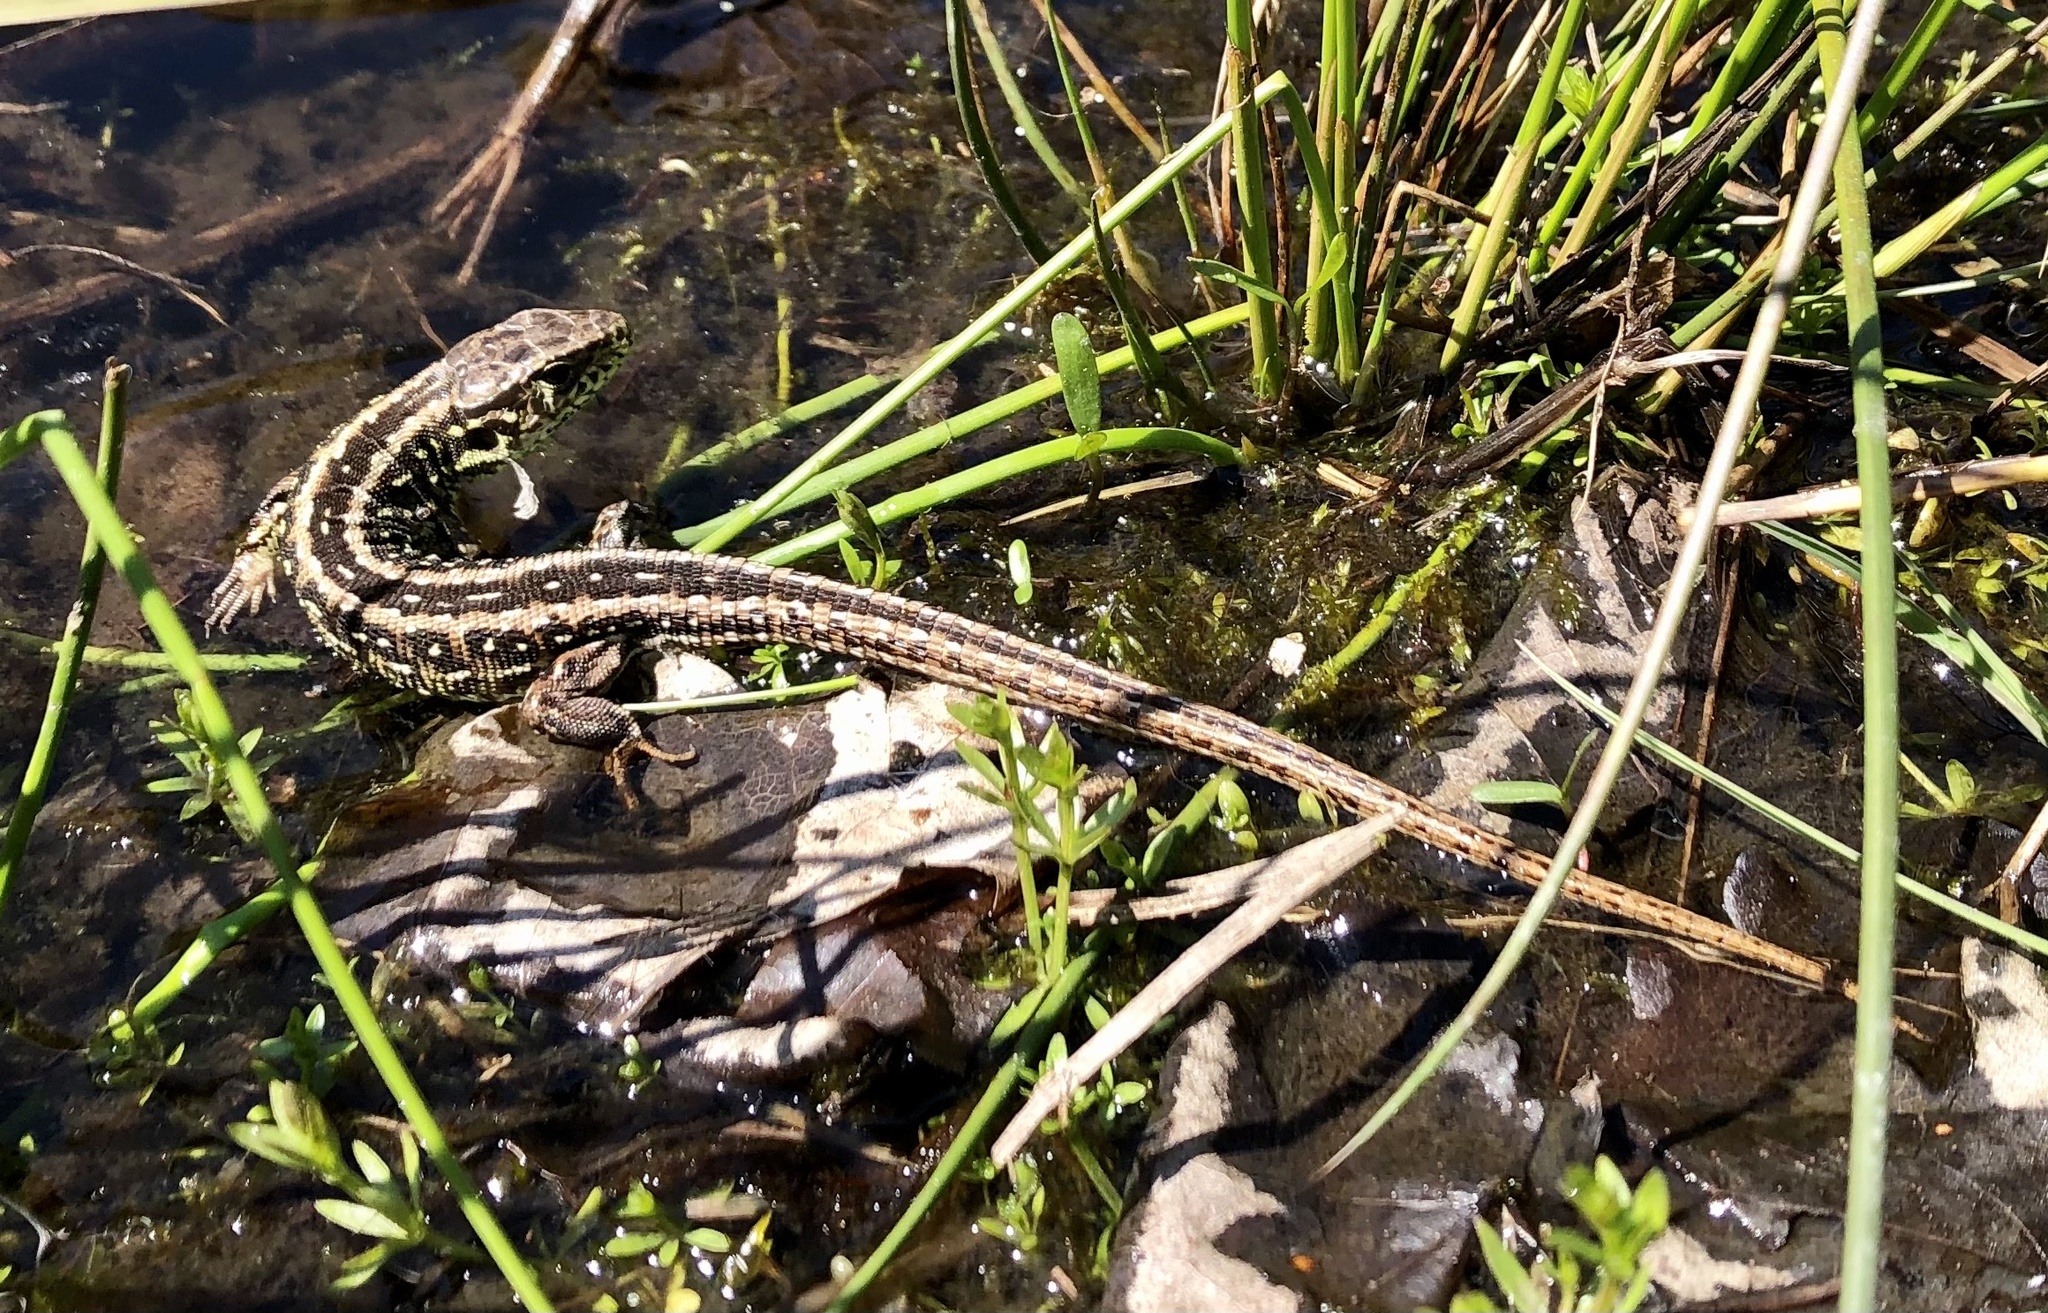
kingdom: Animalia
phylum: Chordata
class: Squamata
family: Lacertidae
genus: Lacerta
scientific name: Lacerta agilis
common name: Sand lizard
